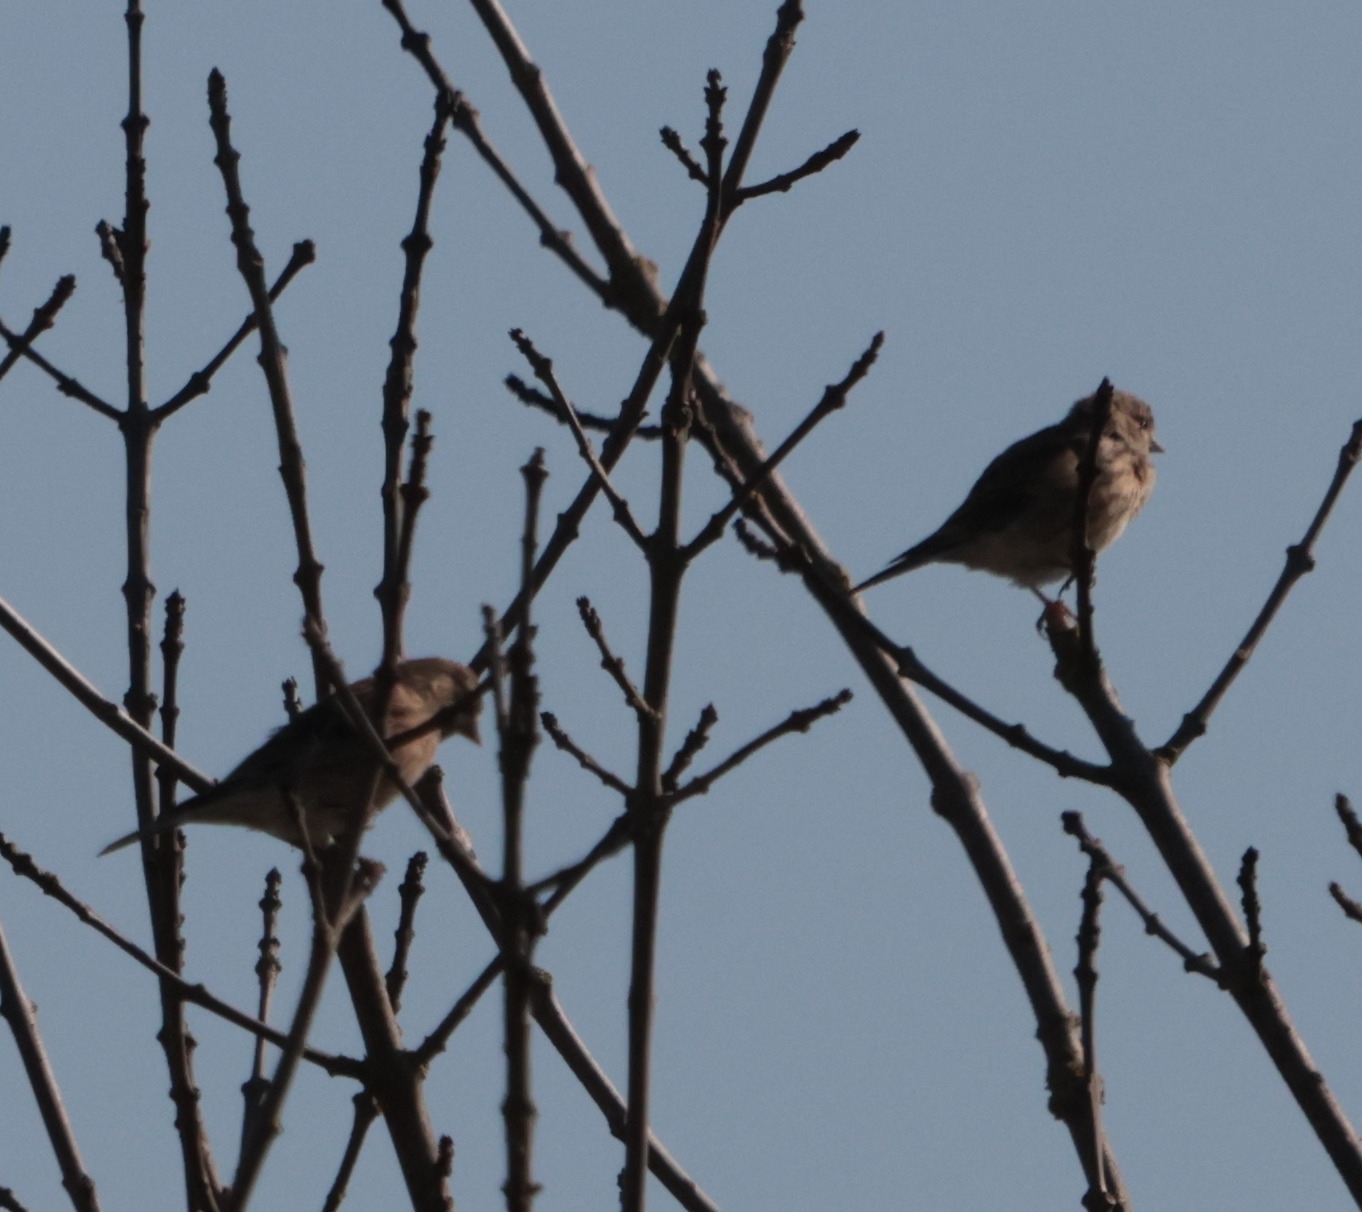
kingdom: Animalia
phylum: Chordata
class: Aves
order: Passeriformes
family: Fringillidae
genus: Linaria
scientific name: Linaria cannabina
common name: Common linnet
